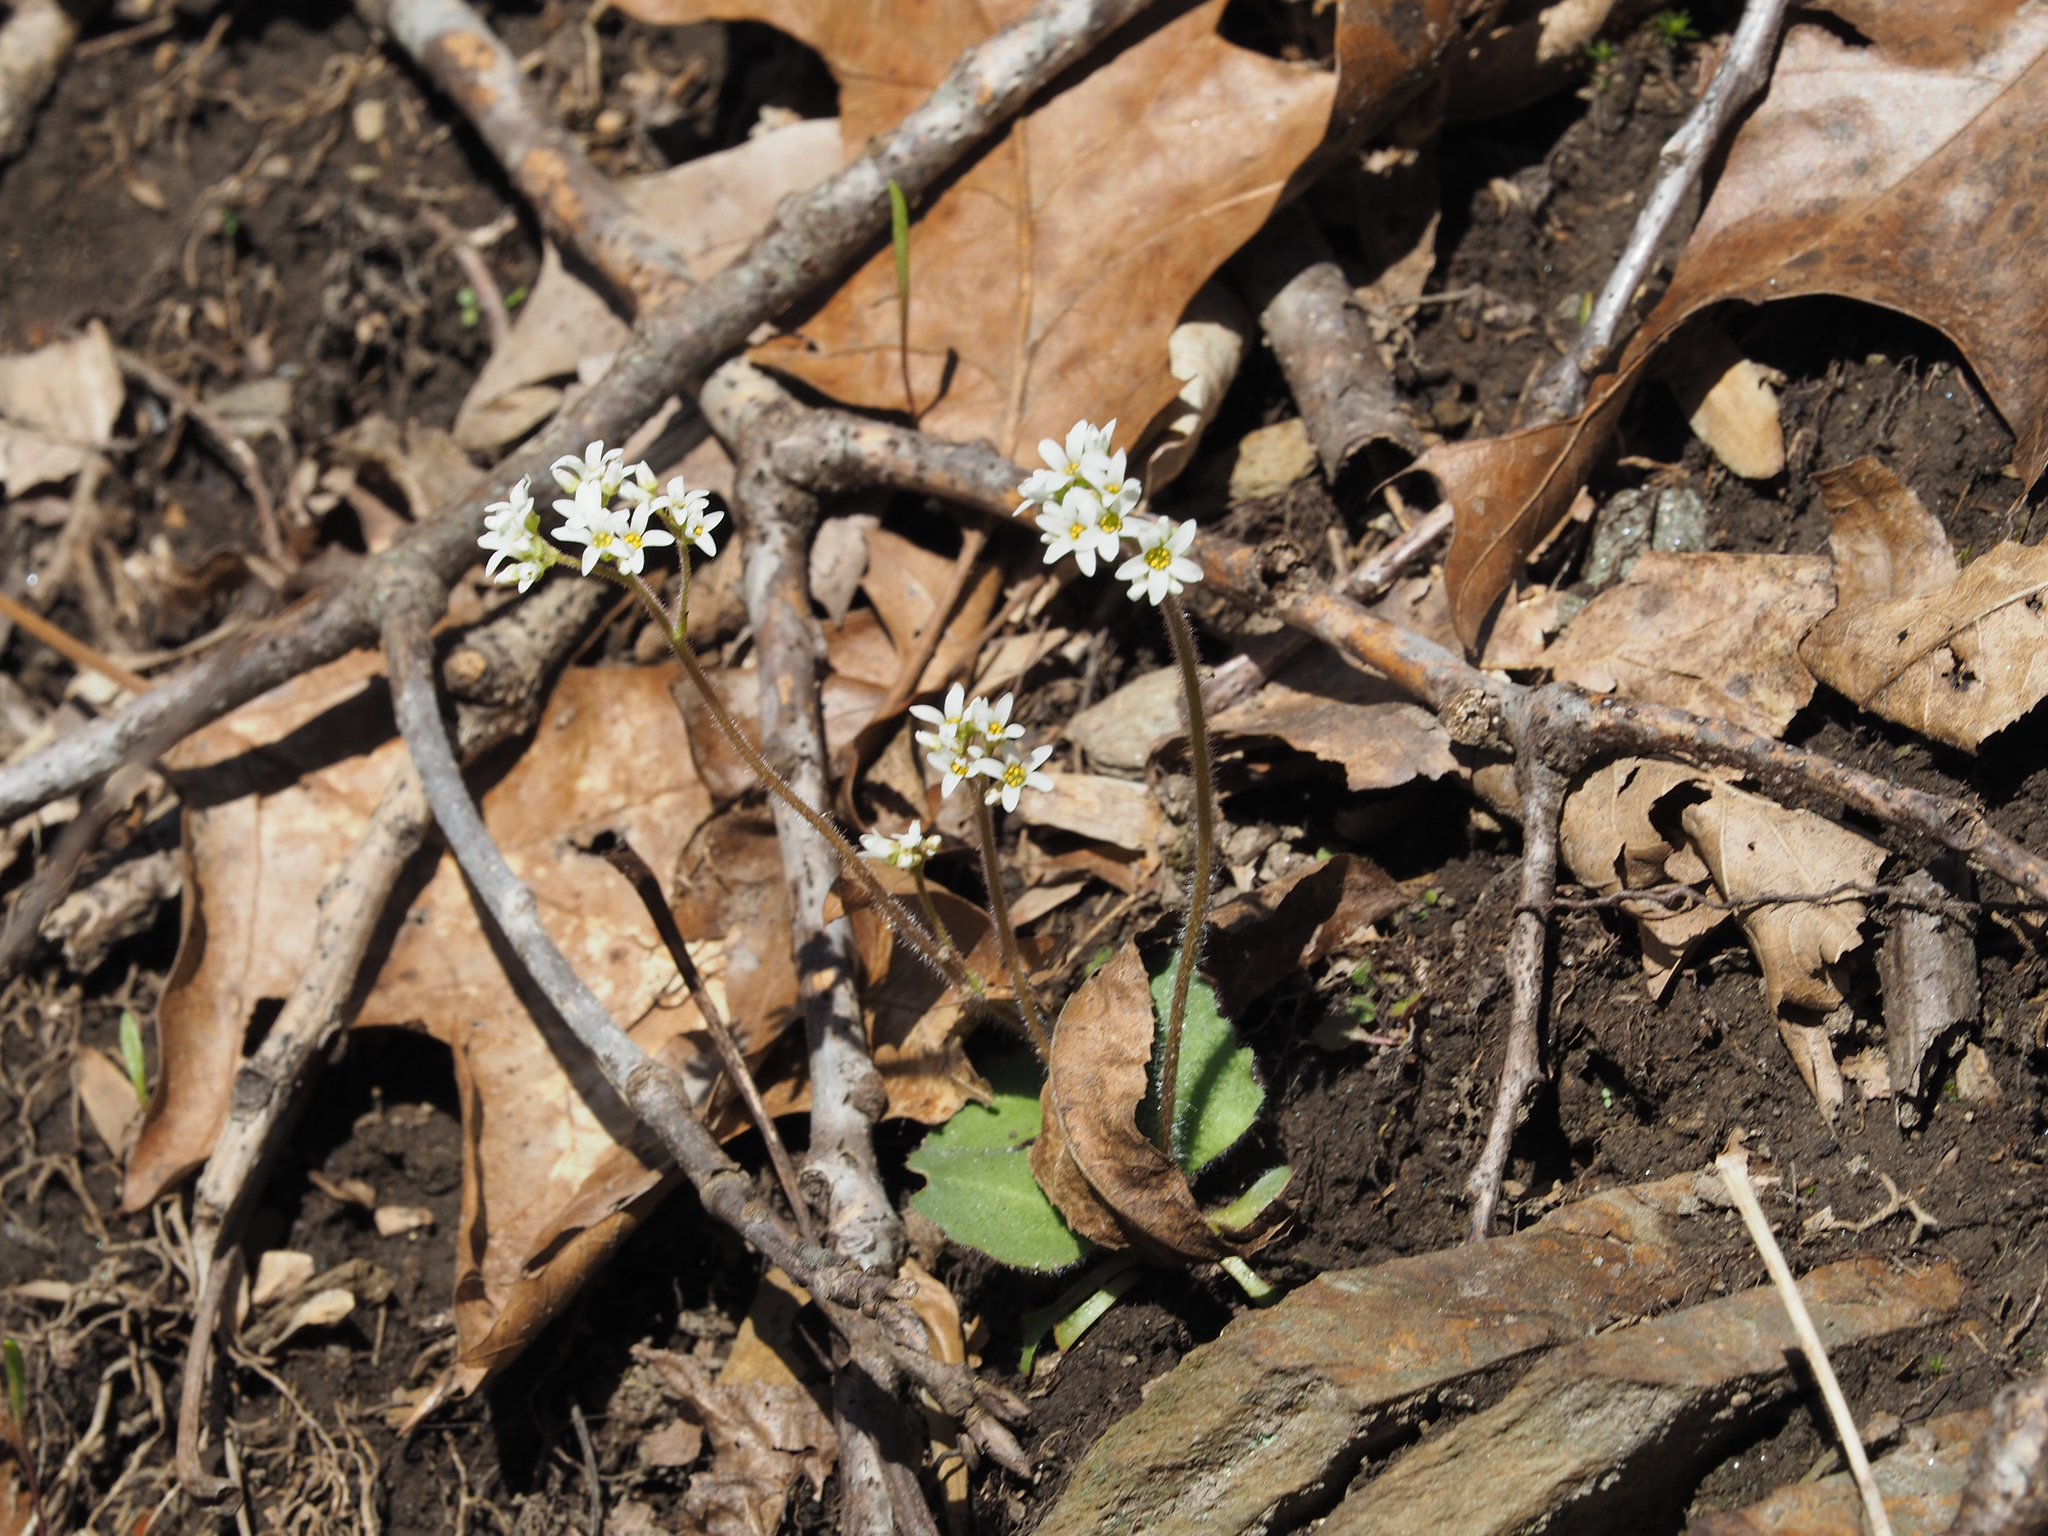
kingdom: Plantae
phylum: Tracheophyta
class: Magnoliopsida
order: Saxifragales
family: Saxifragaceae
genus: Micranthes
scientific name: Micranthes virginiensis
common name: Early saxifrage
